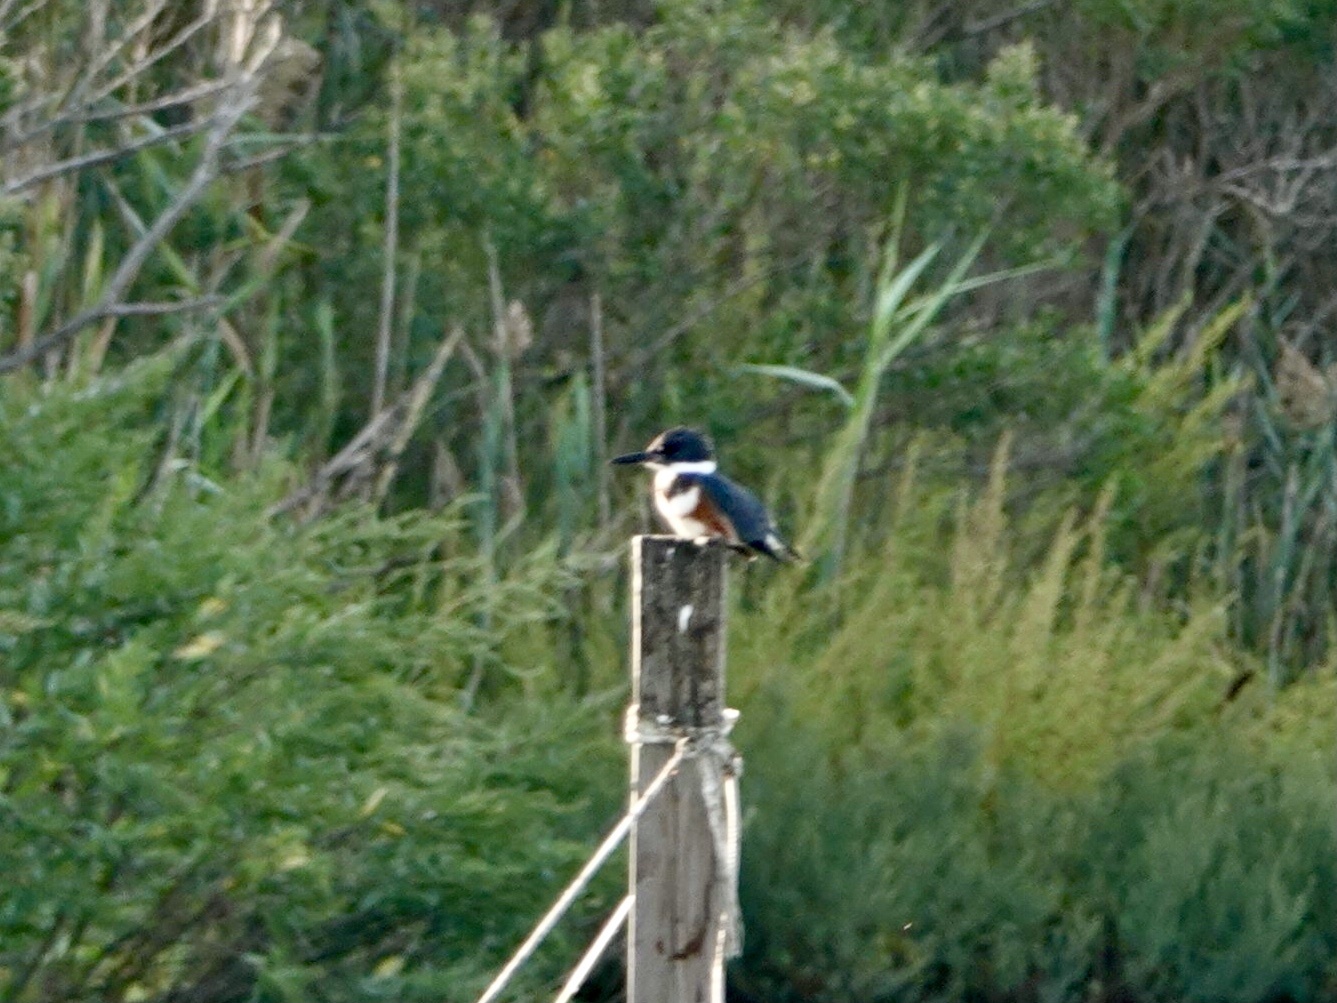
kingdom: Animalia
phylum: Chordata
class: Aves
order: Coraciiformes
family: Alcedinidae
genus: Megaceryle
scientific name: Megaceryle alcyon
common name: Belted kingfisher
